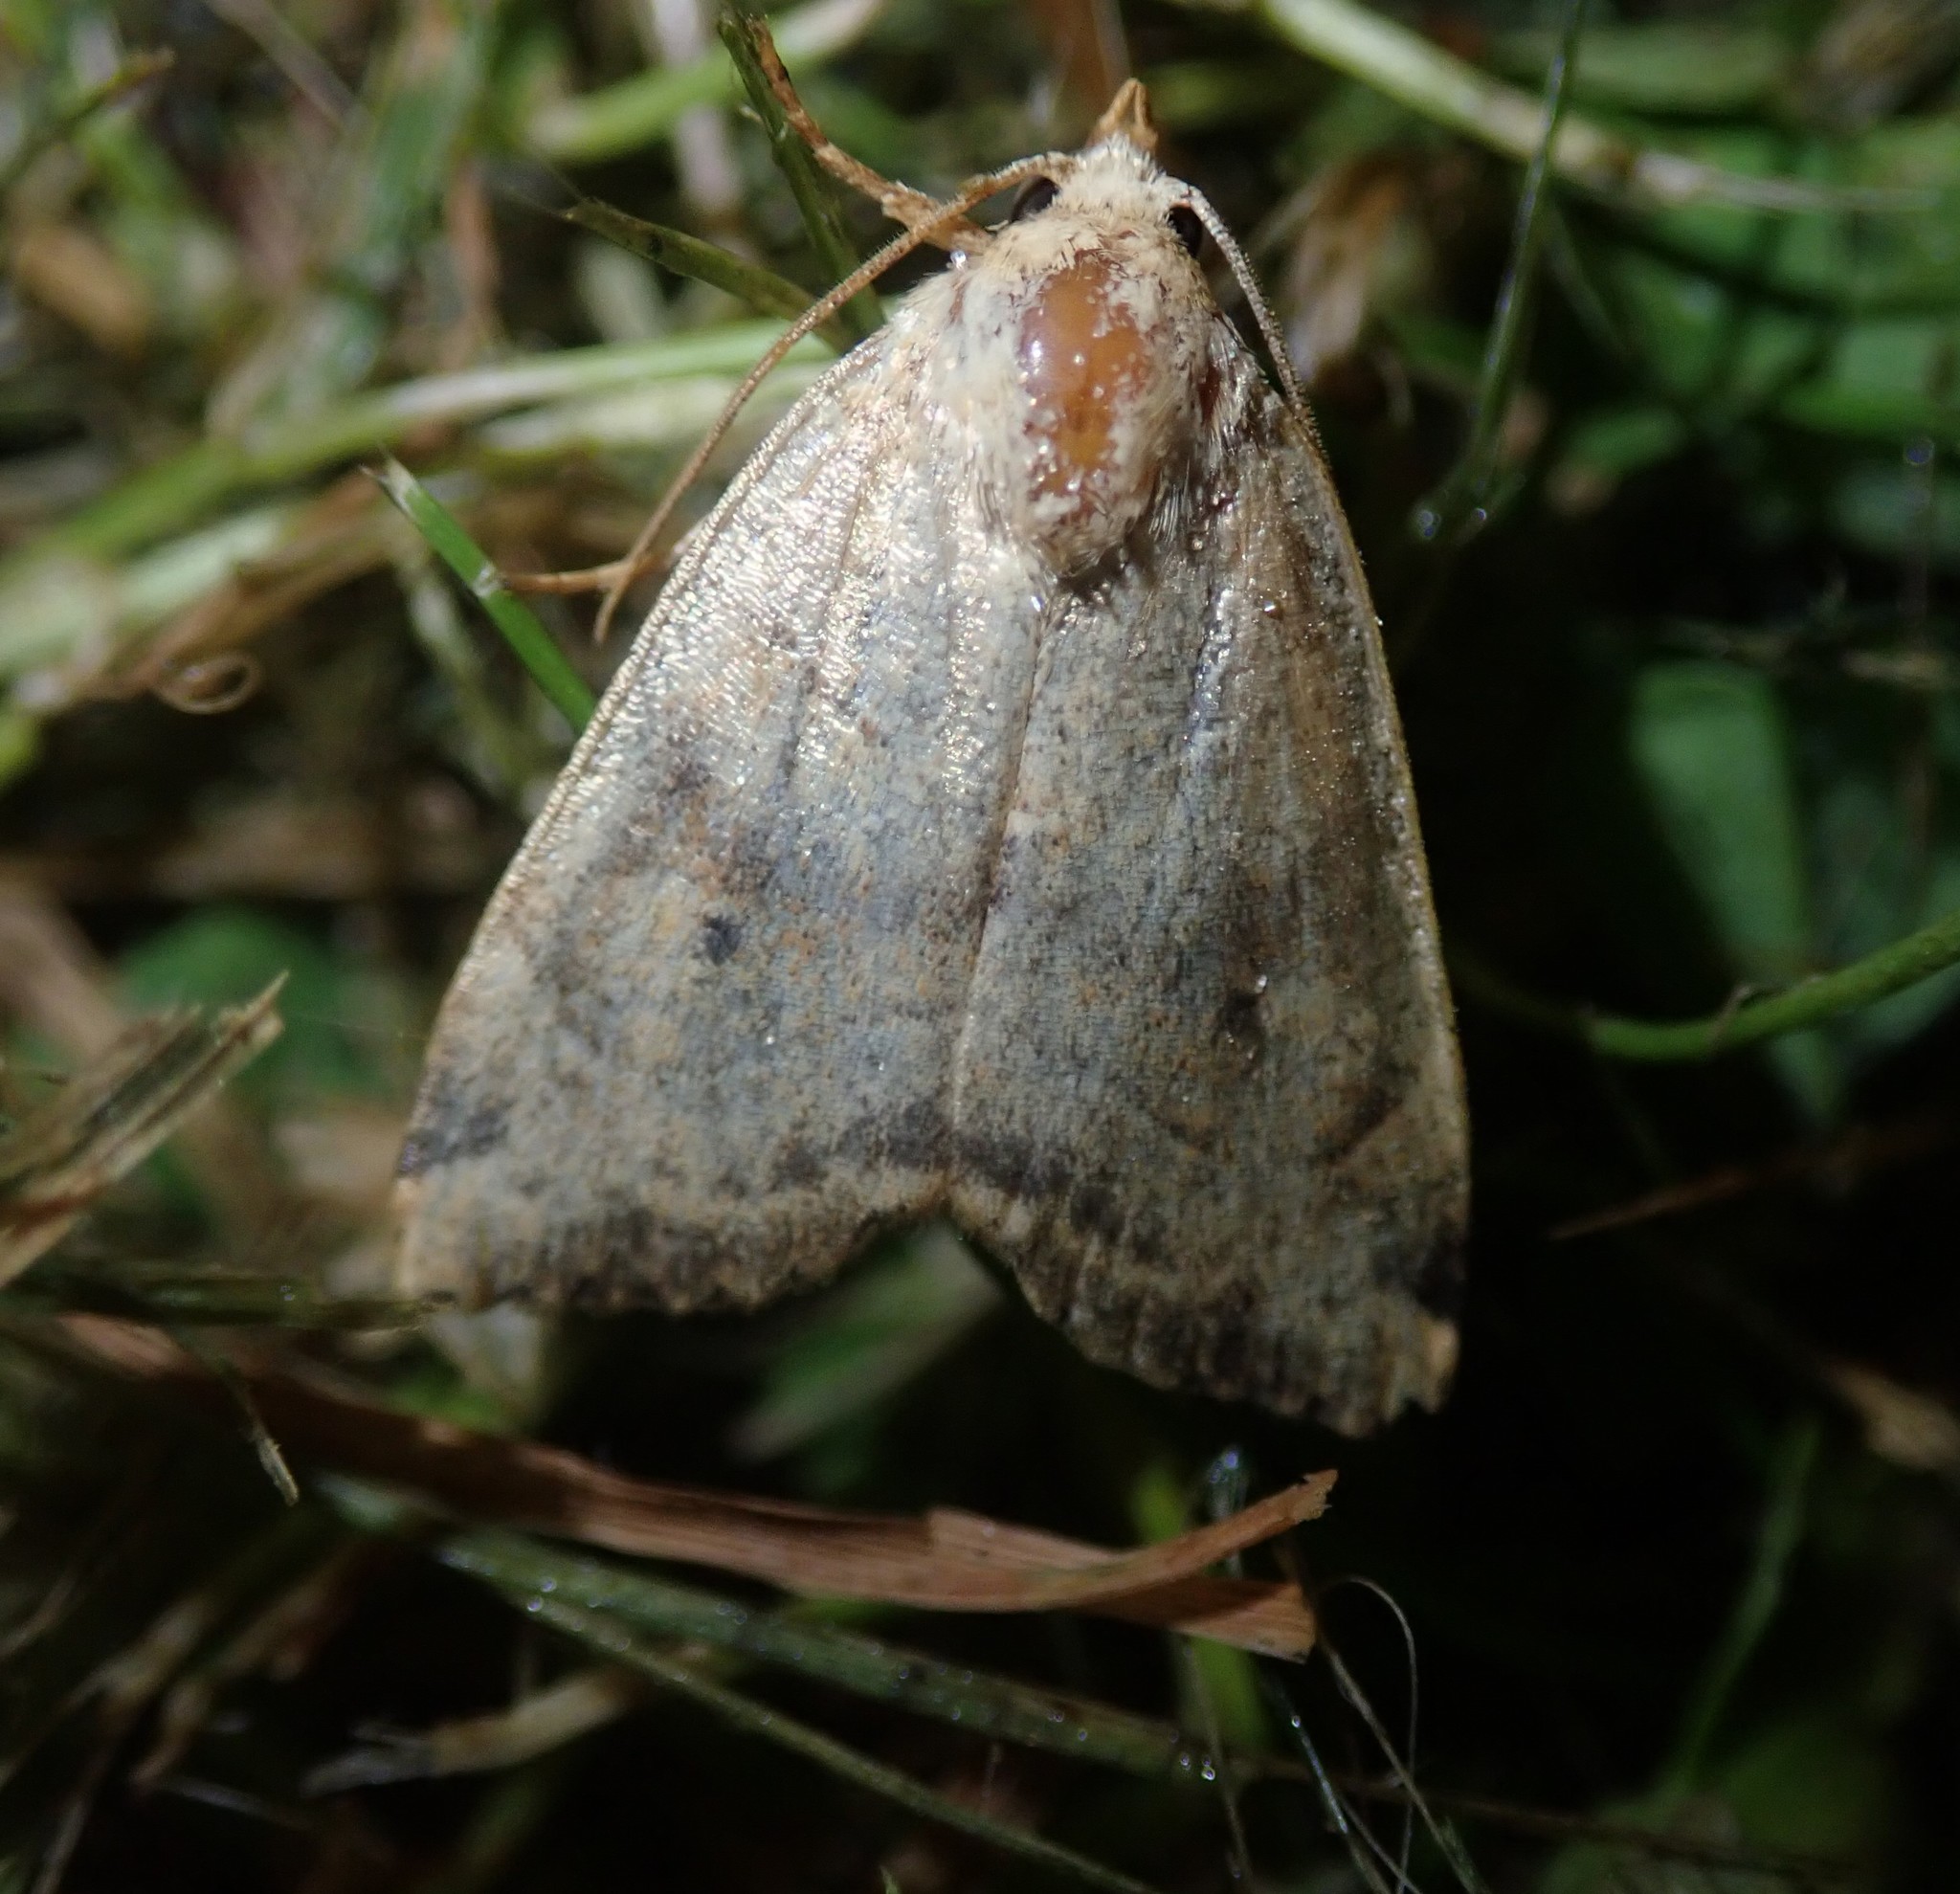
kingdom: Animalia
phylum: Arthropoda
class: Insecta
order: Lepidoptera
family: Noctuidae
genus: Cosmia
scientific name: Cosmia trapezina
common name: Dun-bar
